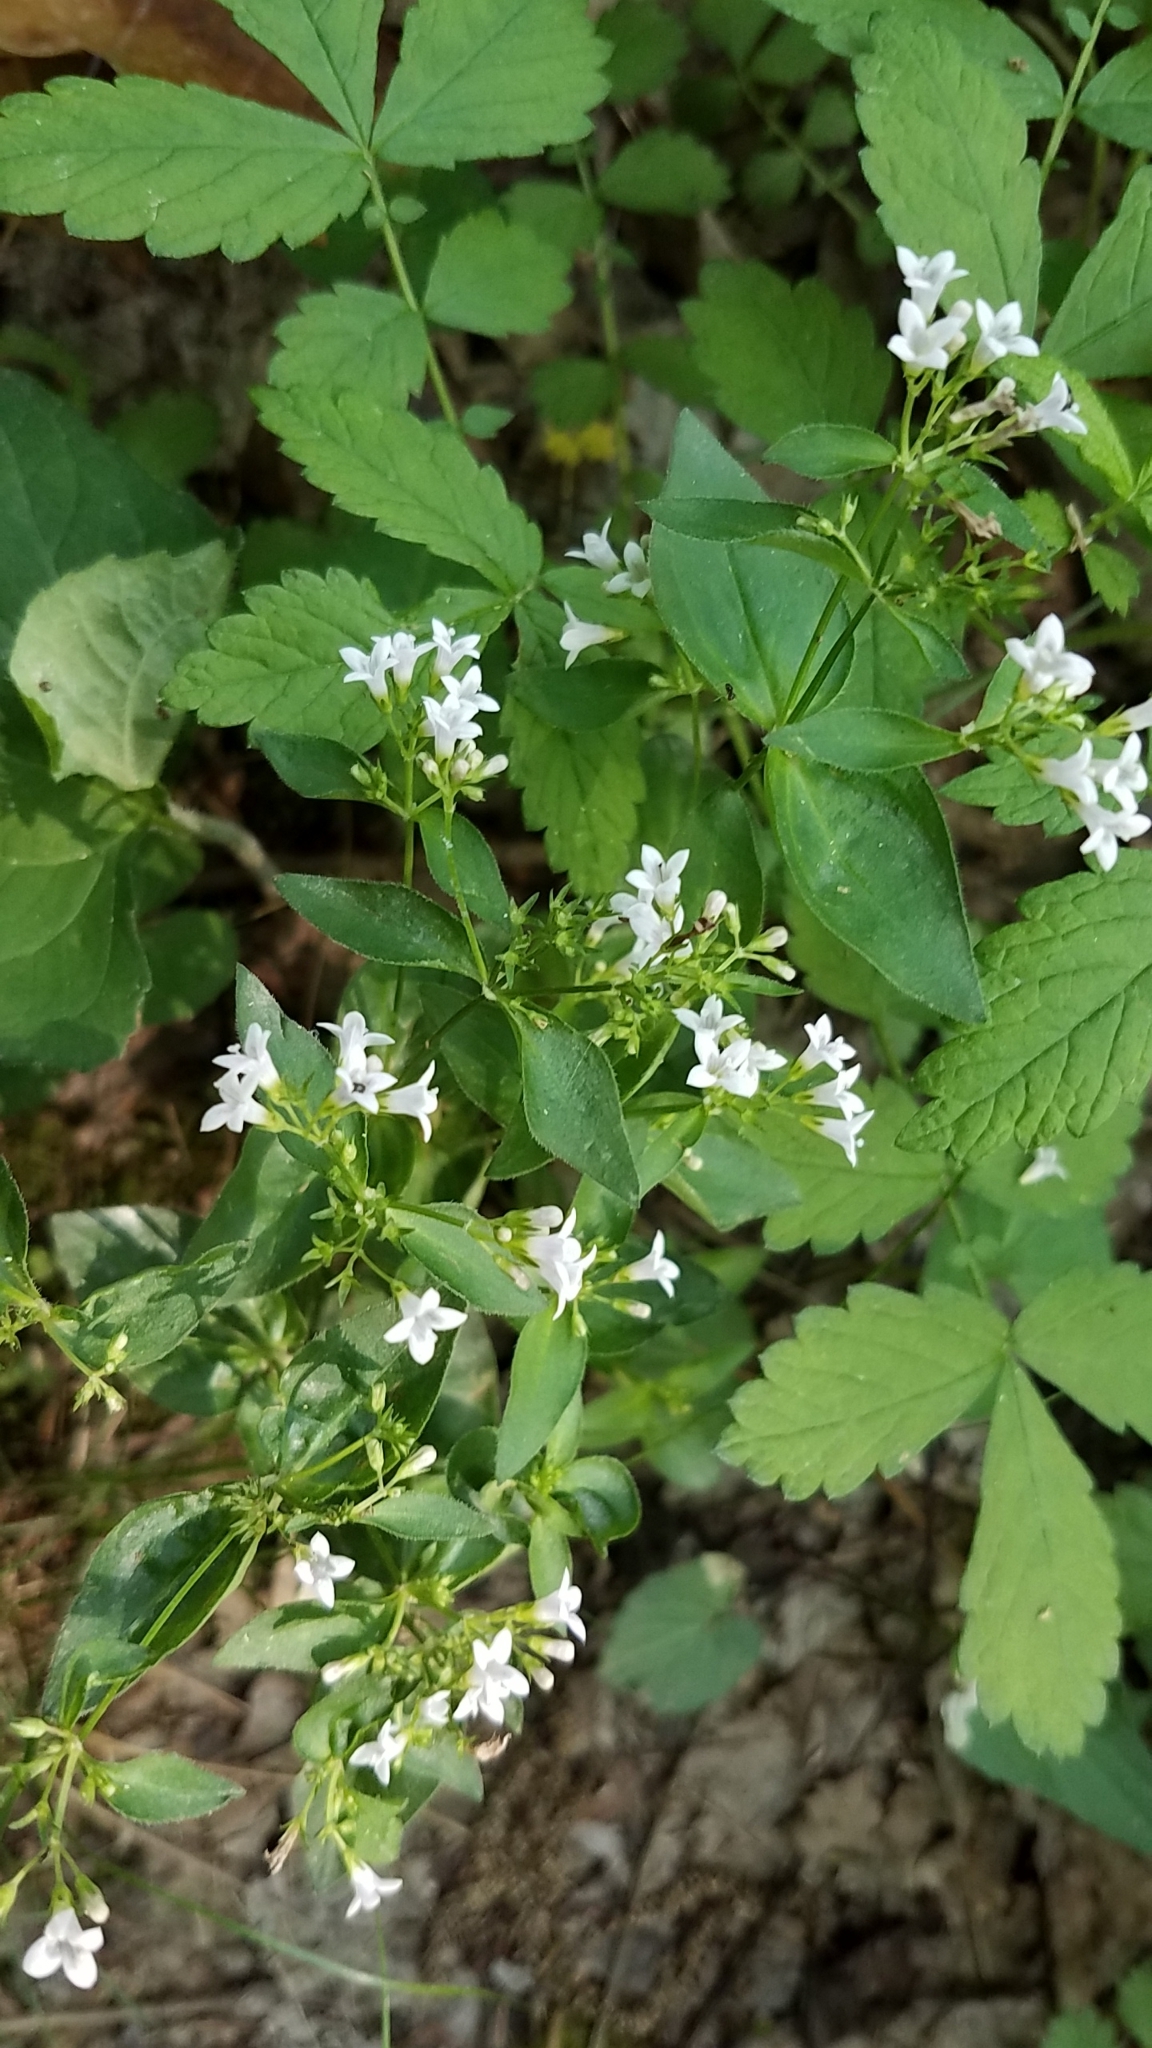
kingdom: Plantae
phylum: Tracheophyta
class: Magnoliopsida
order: Gentianales
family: Rubiaceae
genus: Houstonia
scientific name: Houstonia purpurea
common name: Summer bluet
